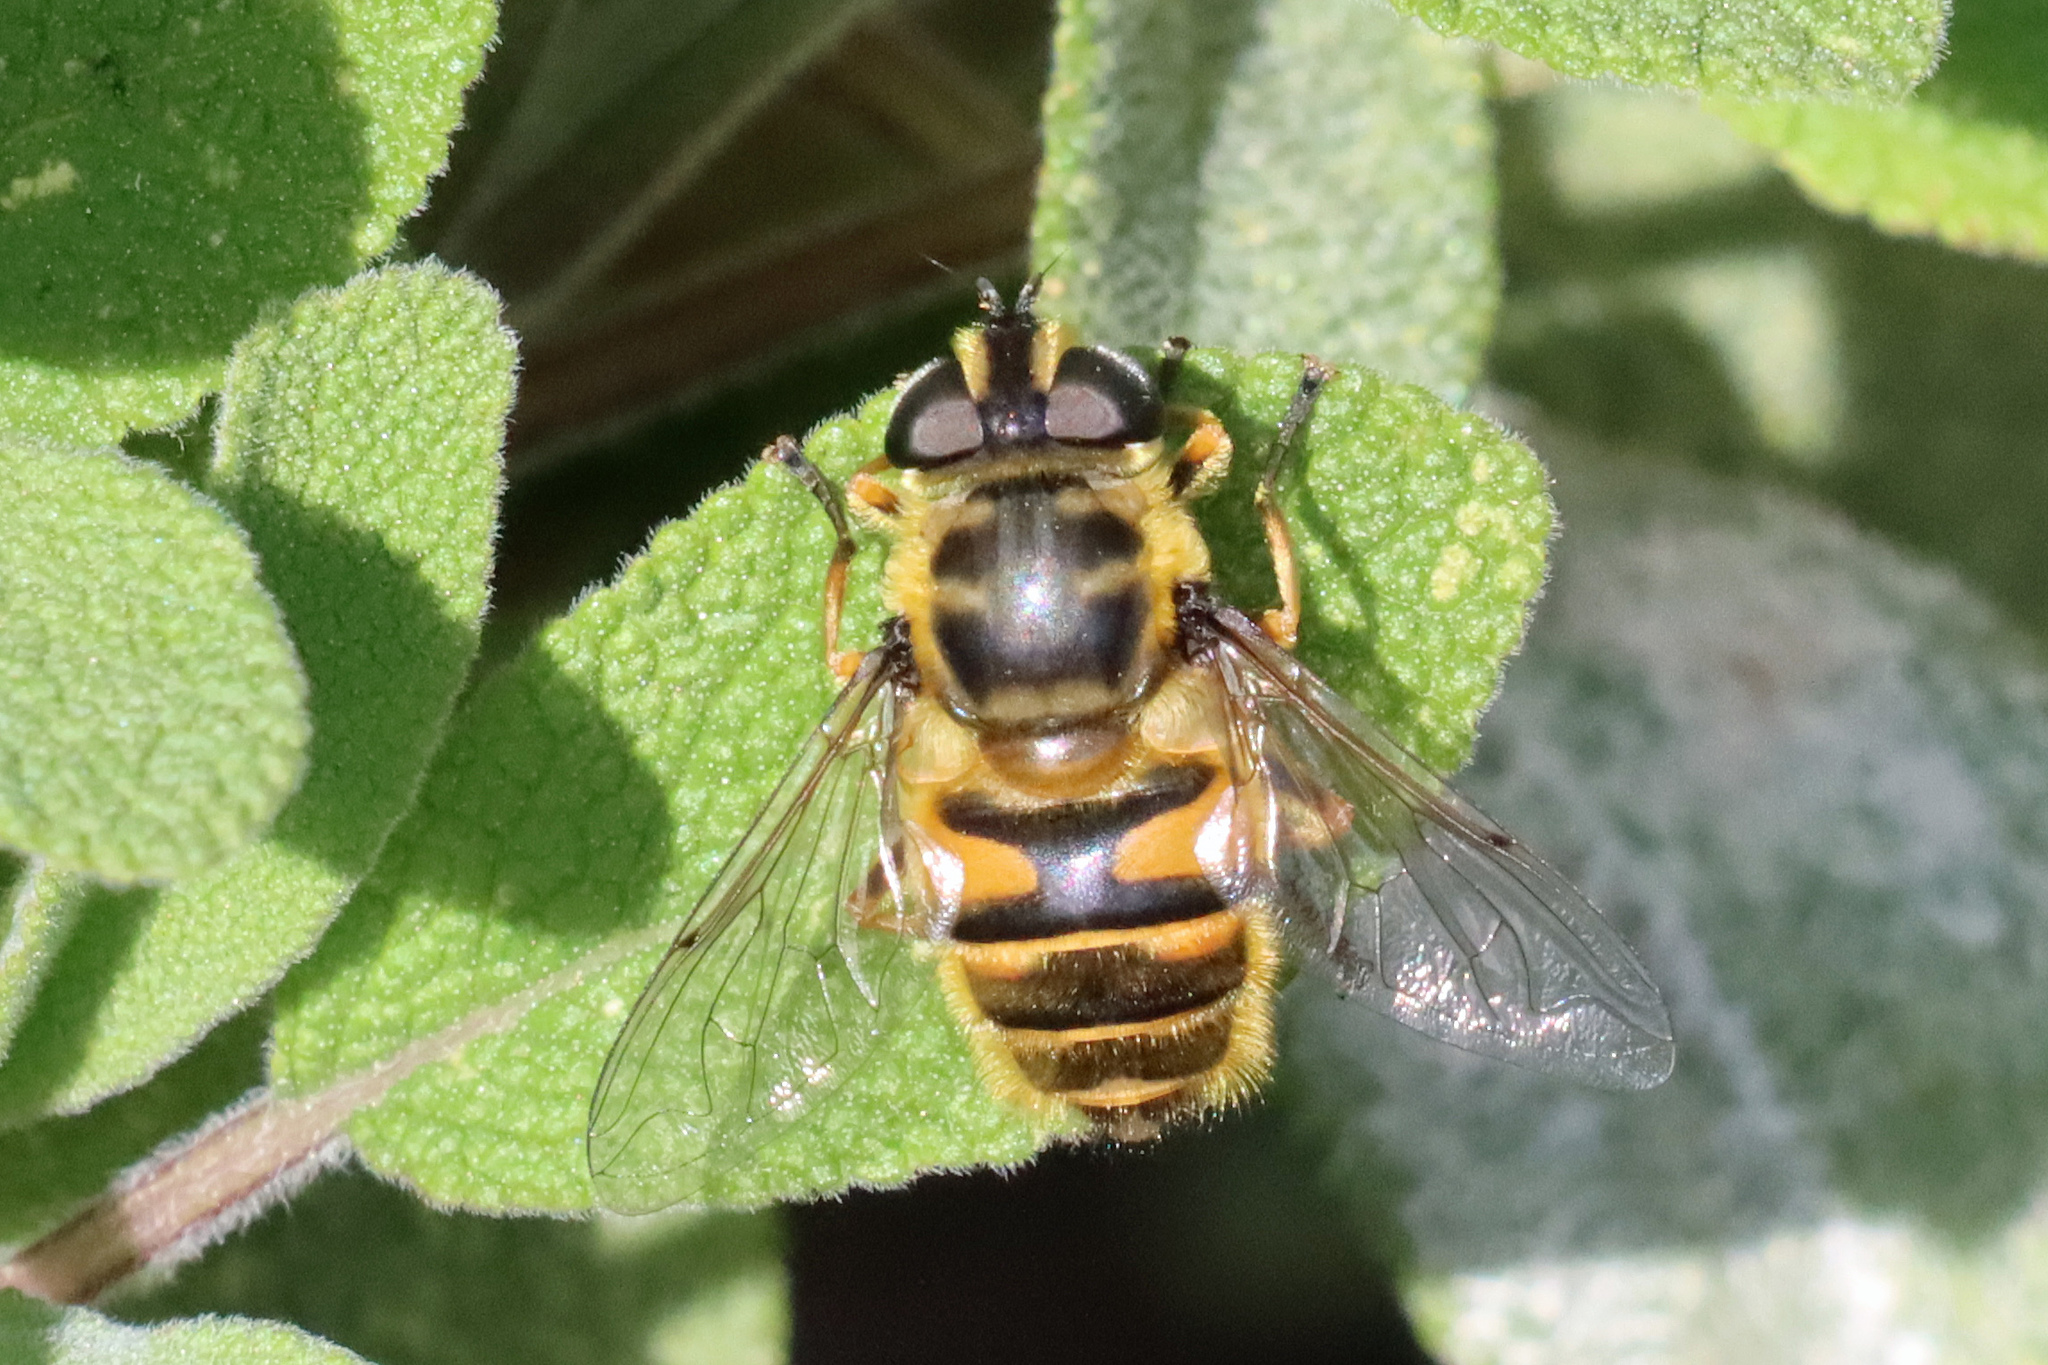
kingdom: Animalia
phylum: Arthropoda
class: Insecta
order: Diptera
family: Syrphidae
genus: Myathropa
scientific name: Myathropa florea
